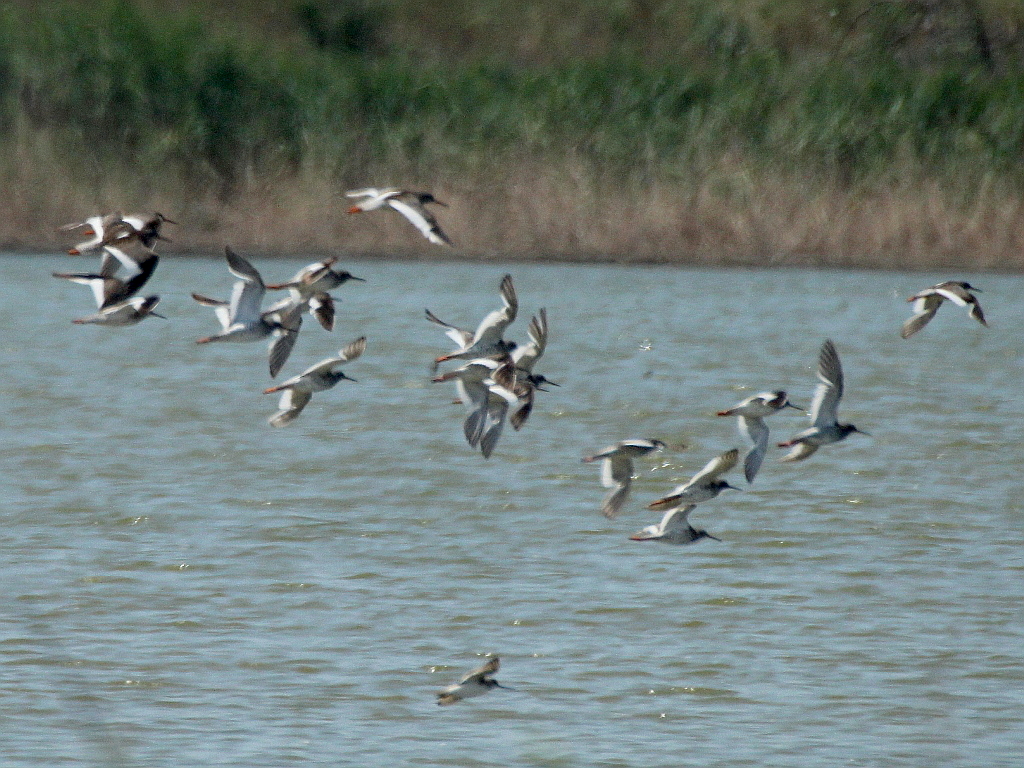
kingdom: Animalia
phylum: Chordata
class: Aves
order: Charadriiformes
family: Scolopacidae
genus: Tringa
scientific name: Tringa totanus
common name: Common redshank
